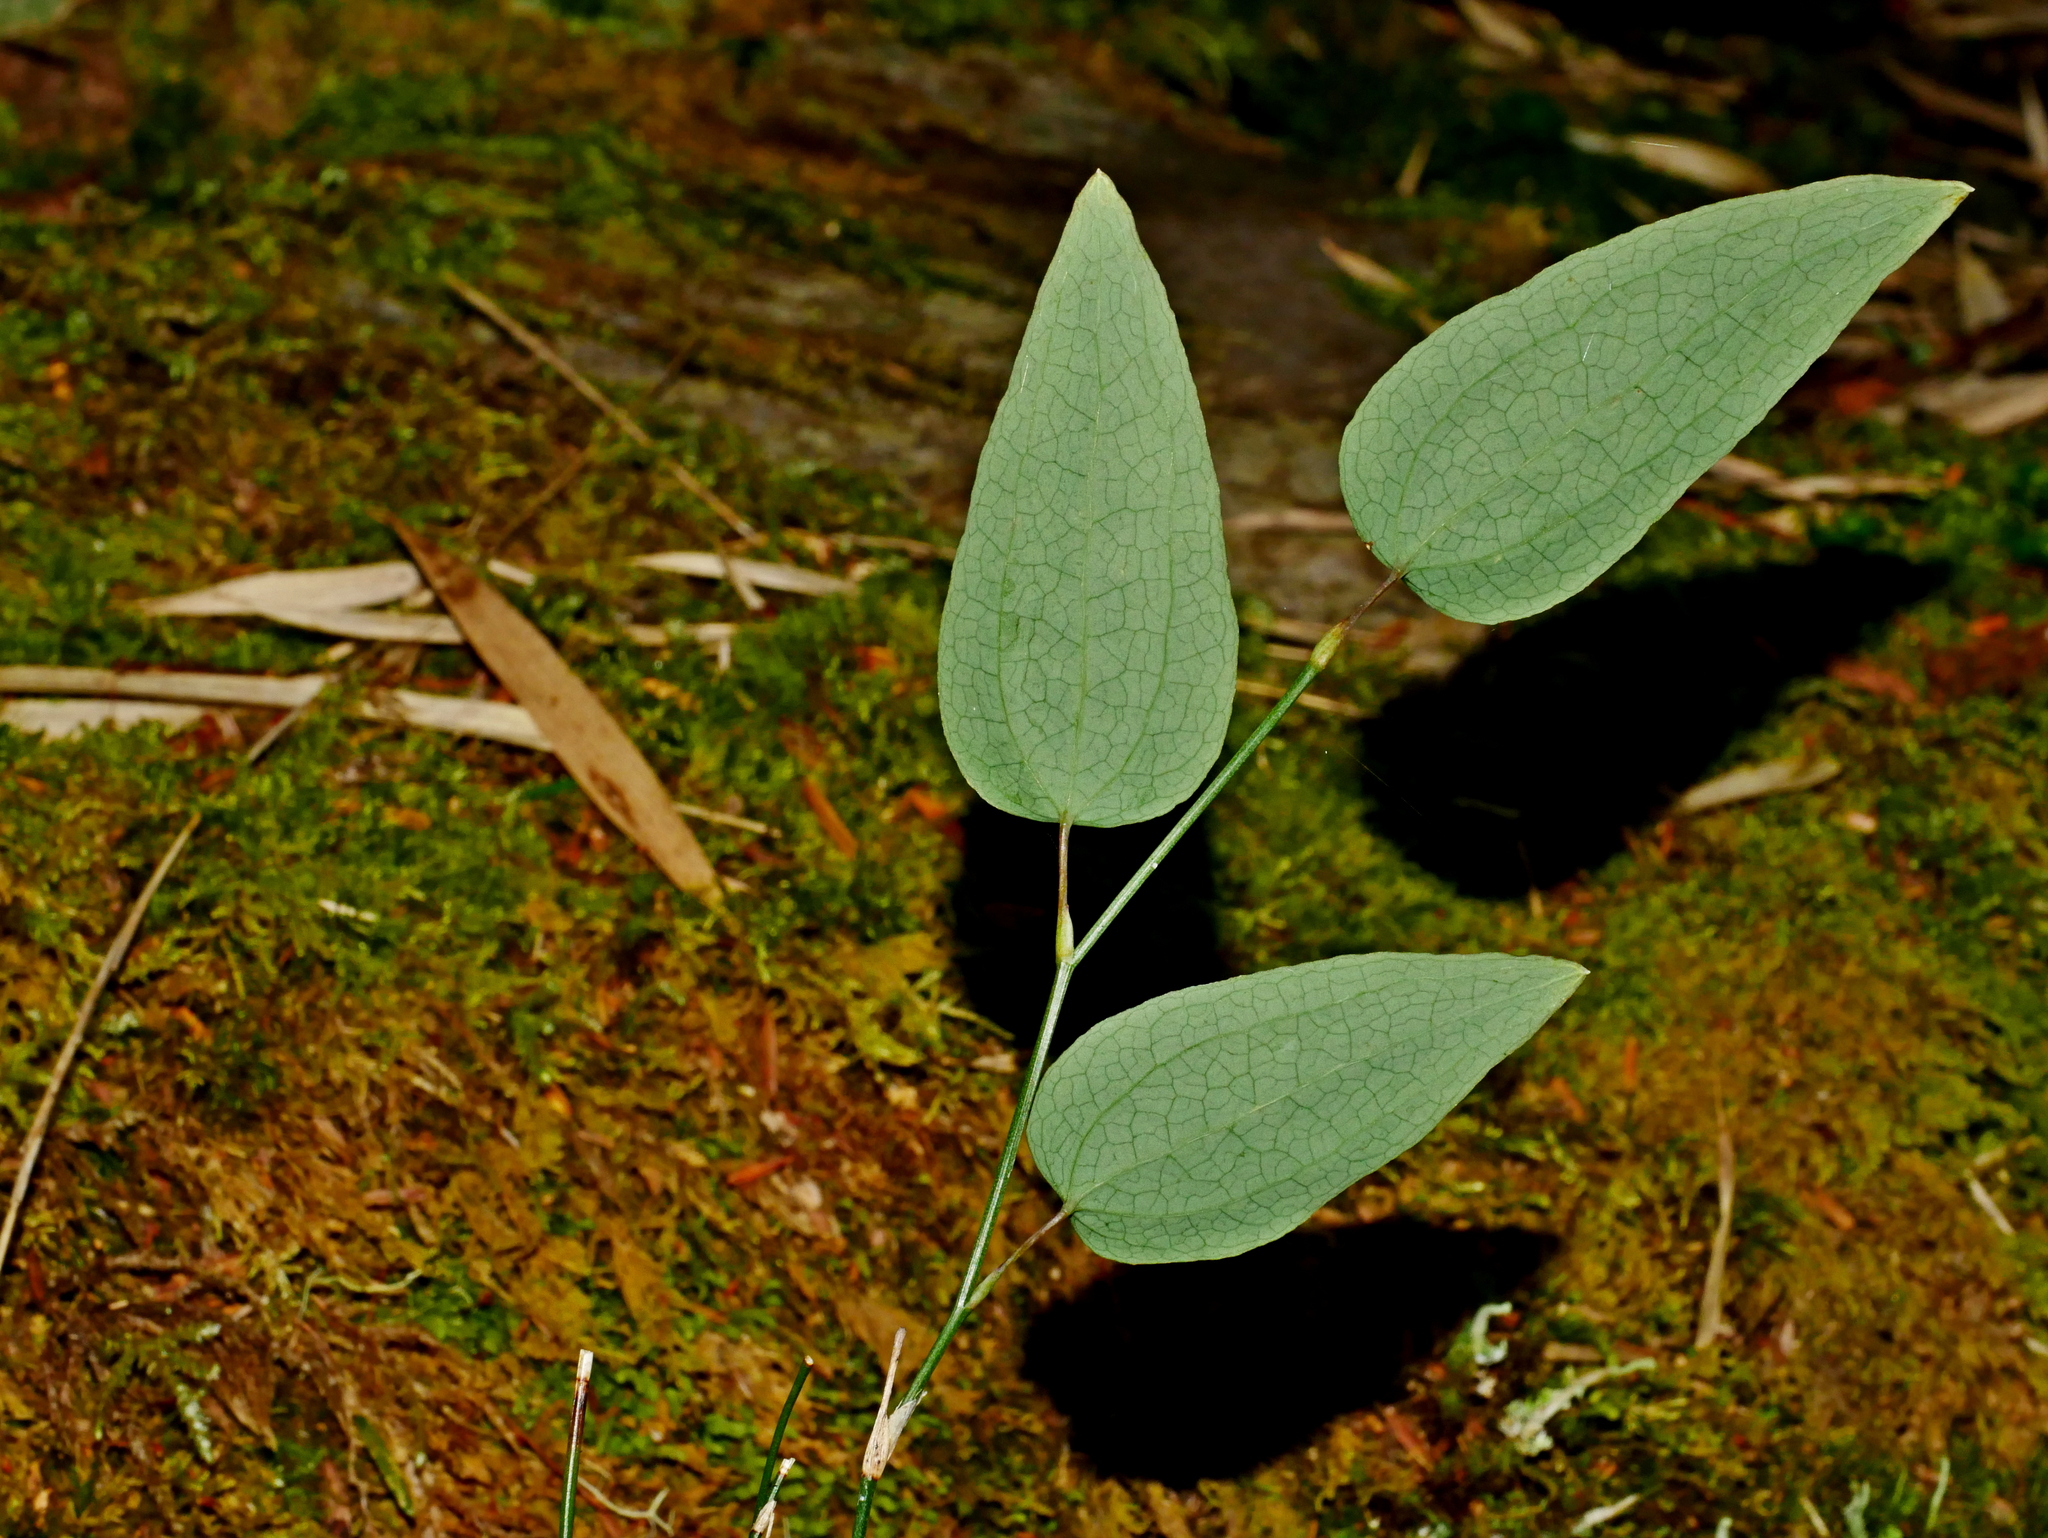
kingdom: Plantae
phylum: Tracheophyta
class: Liliopsida
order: Liliales
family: Smilacaceae
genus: Smilax
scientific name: Smilax vaginata
